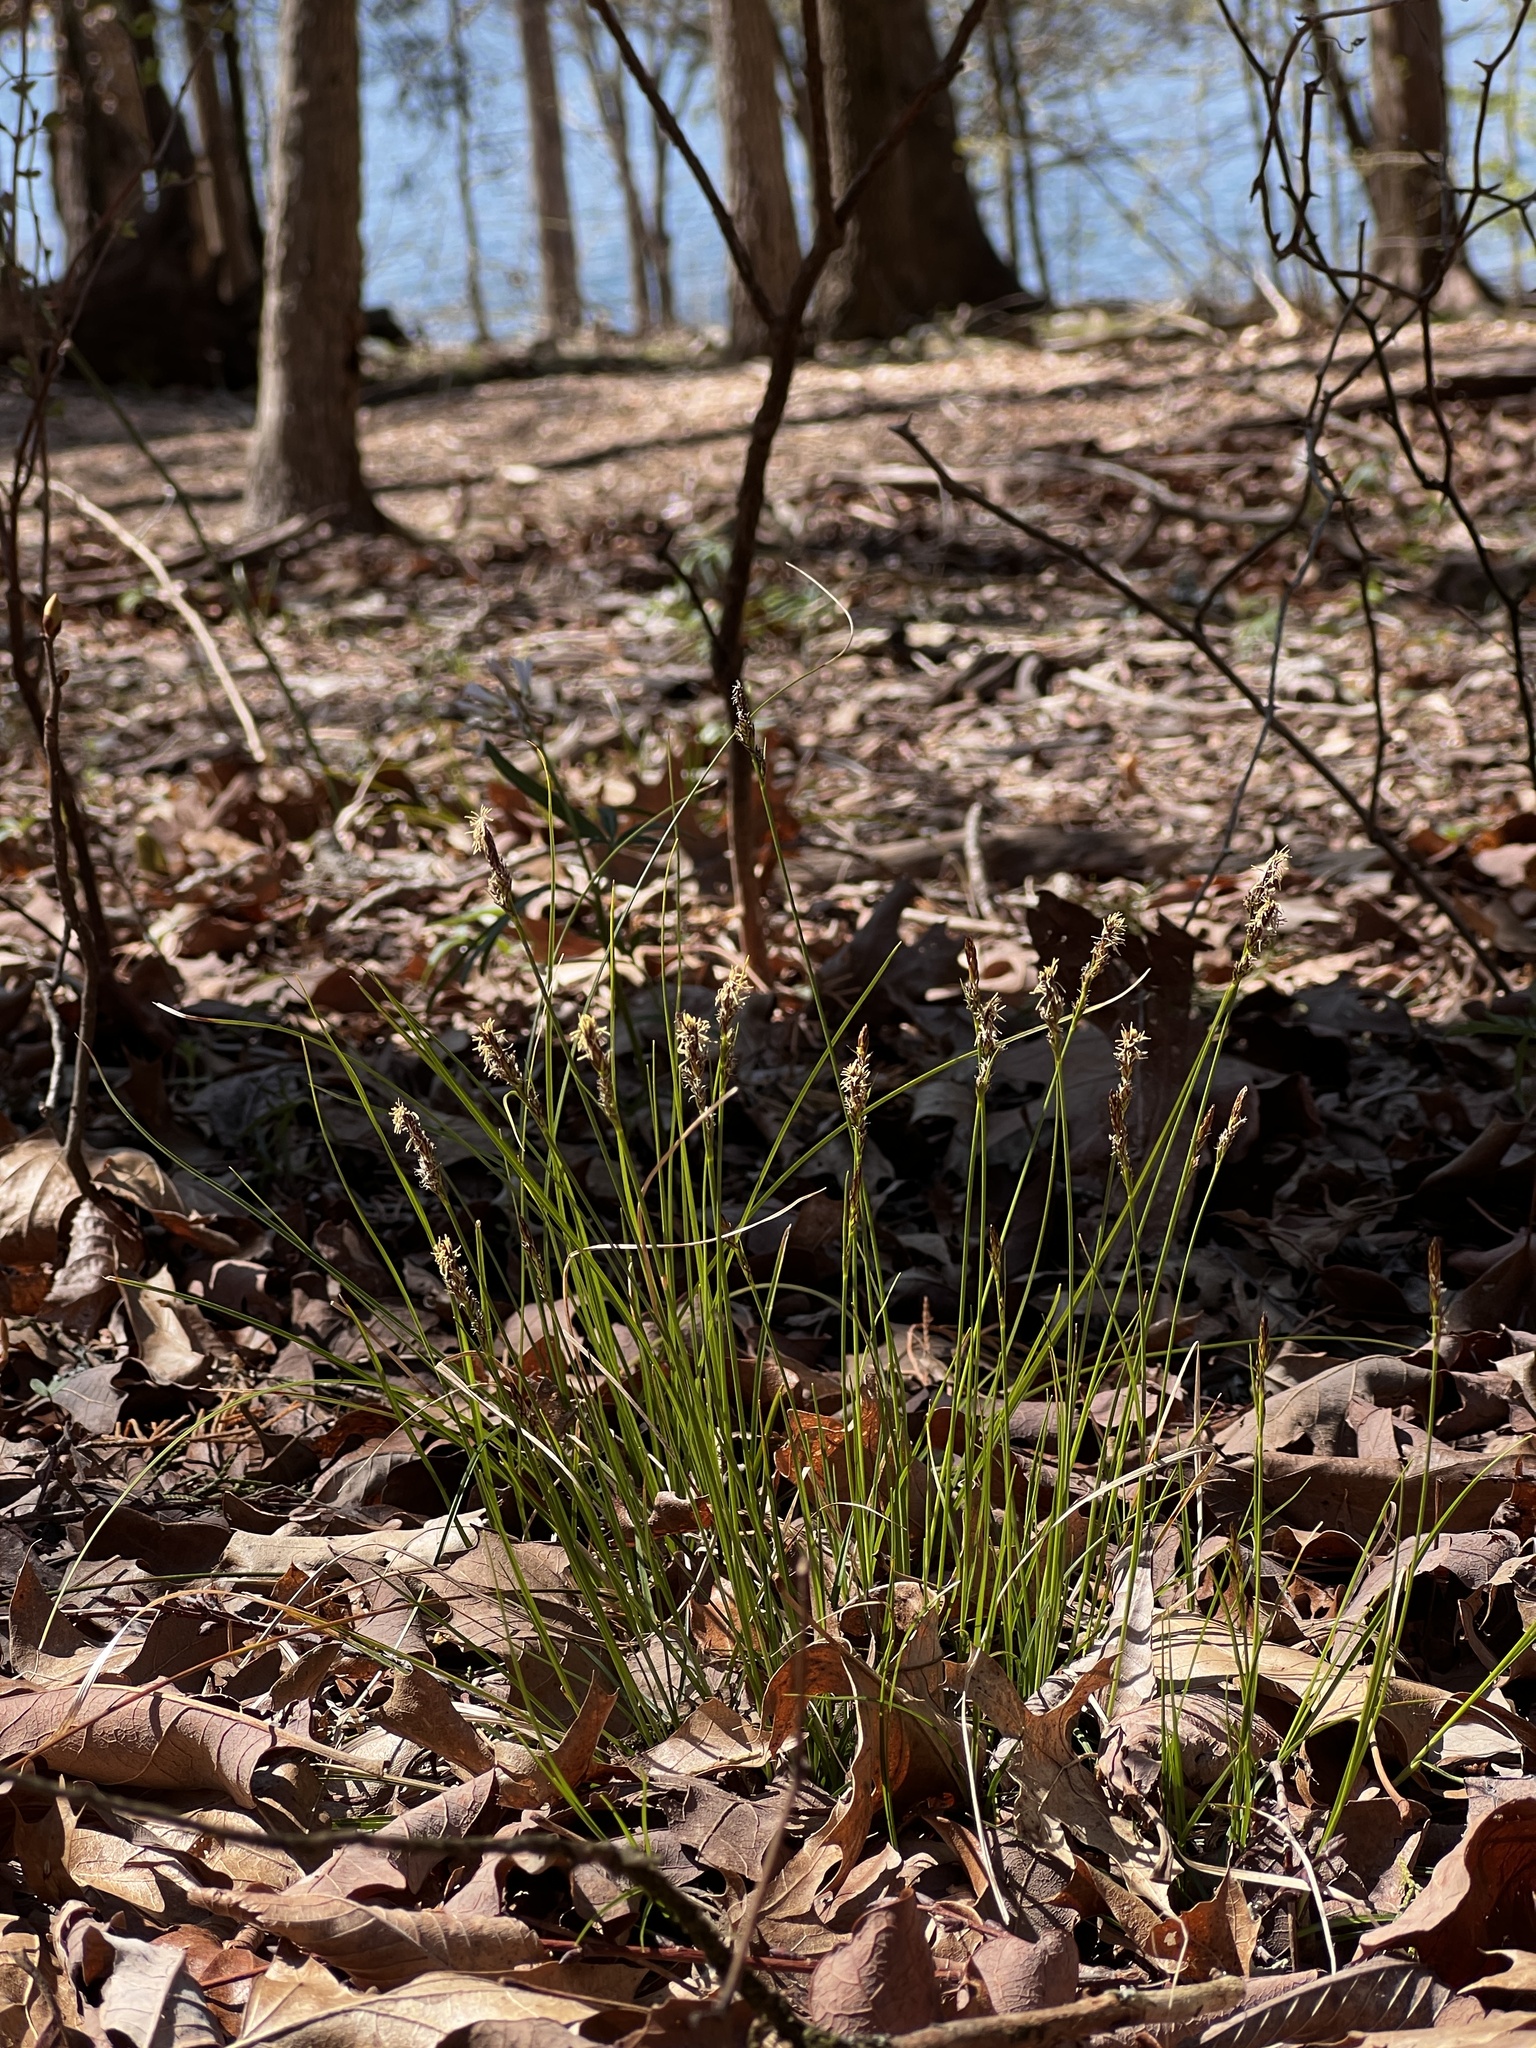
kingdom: Plantae
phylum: Tracheophyta
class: Liliopsida
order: Poales
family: Cyperaceae
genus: Carex
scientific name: Carex albicans
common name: Bellow-beaked sedge
